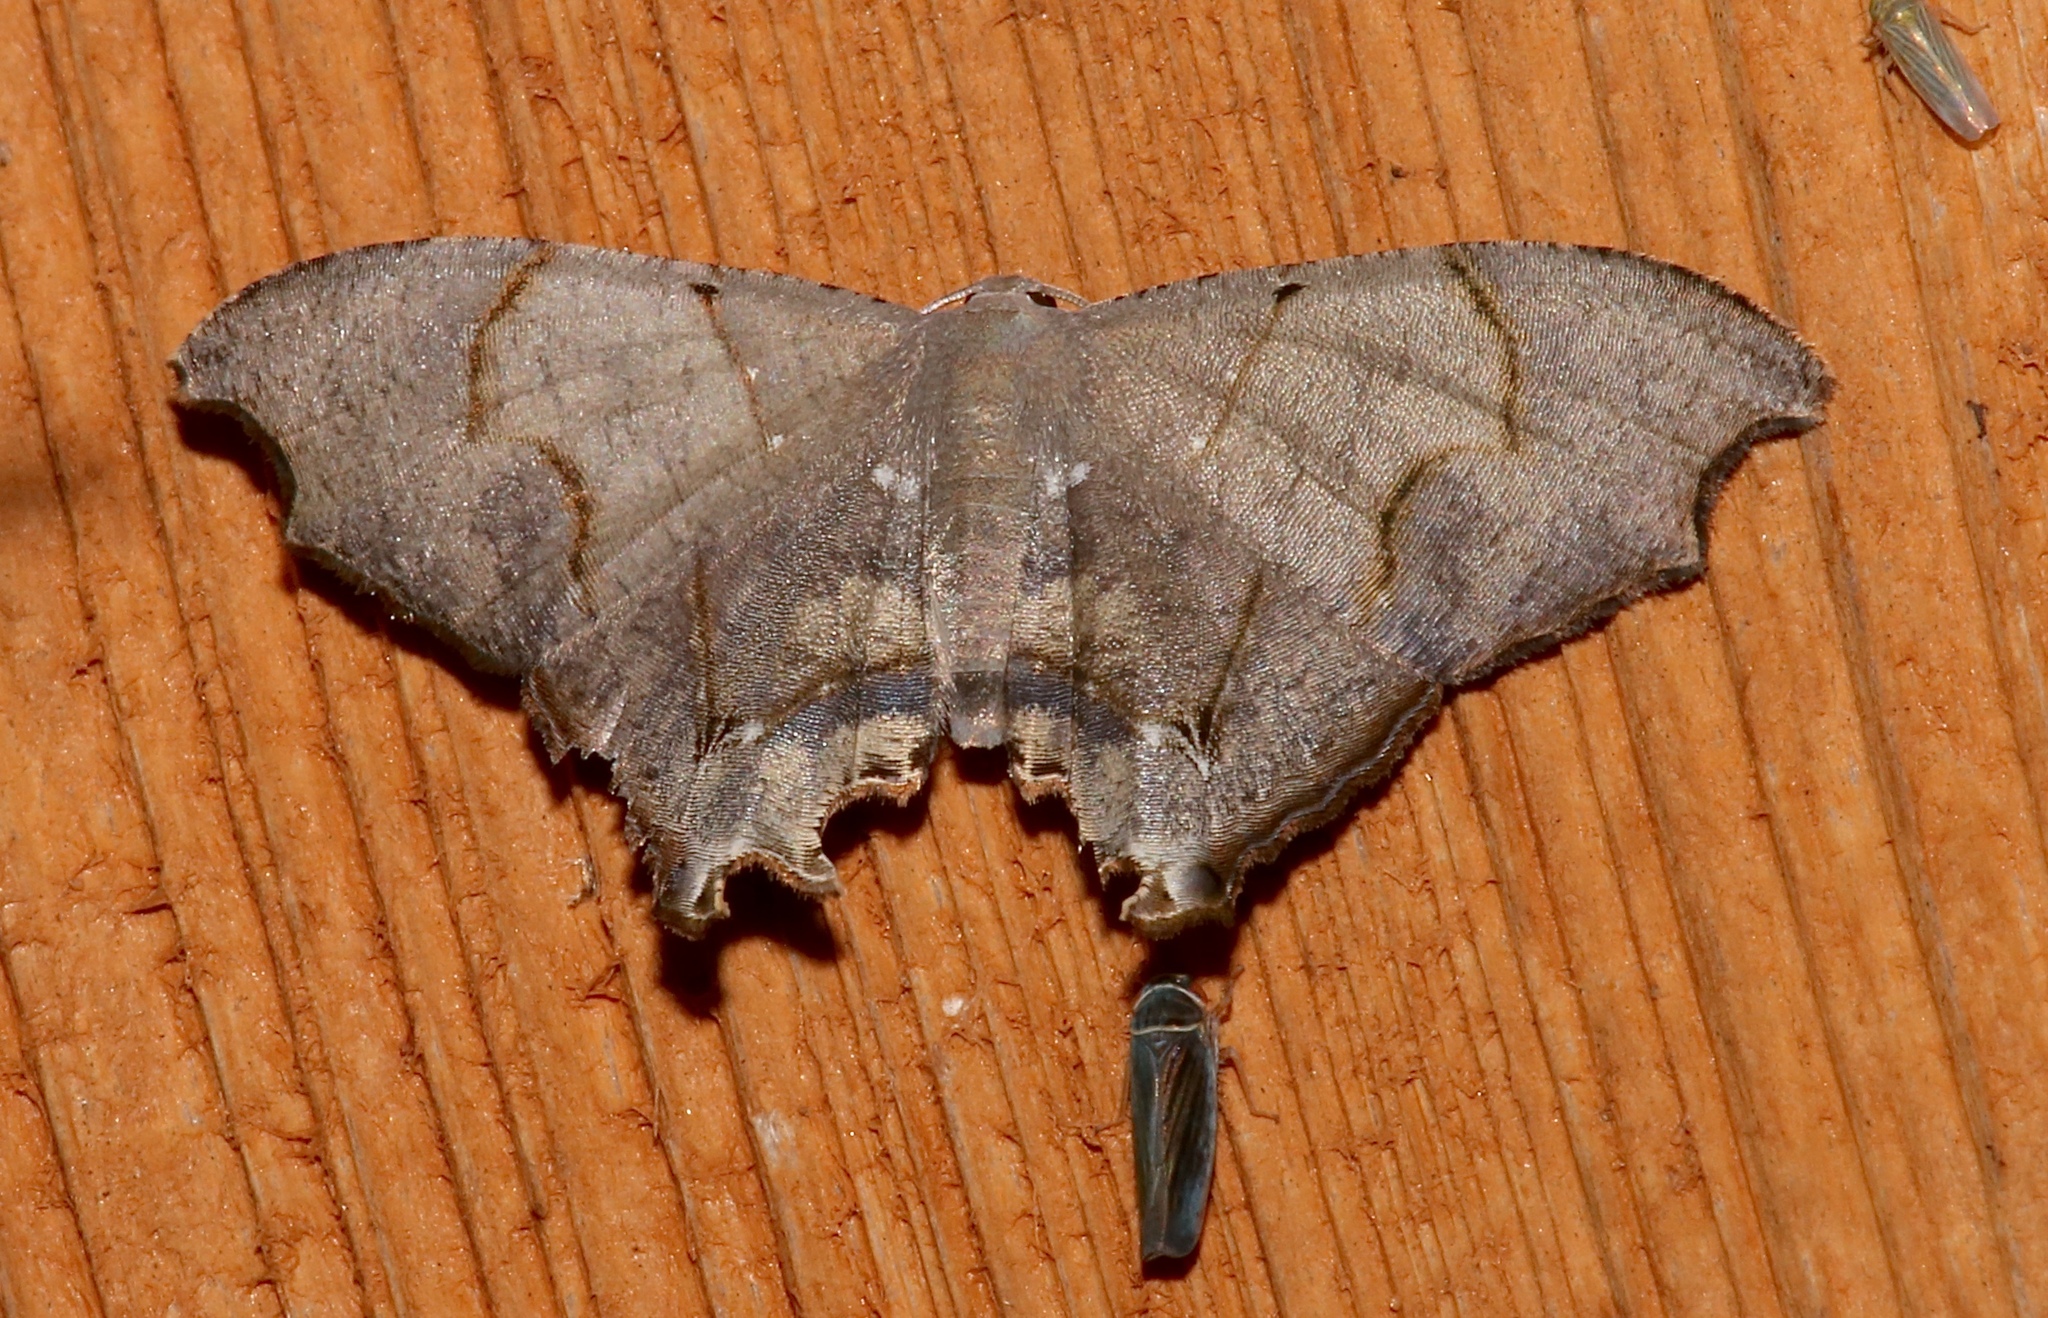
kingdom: Animalia
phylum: Arthropoda
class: Insecta
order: Lepidoptera
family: Uraniidae
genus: Trotorhombia
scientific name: Trotorhombia metachromata
